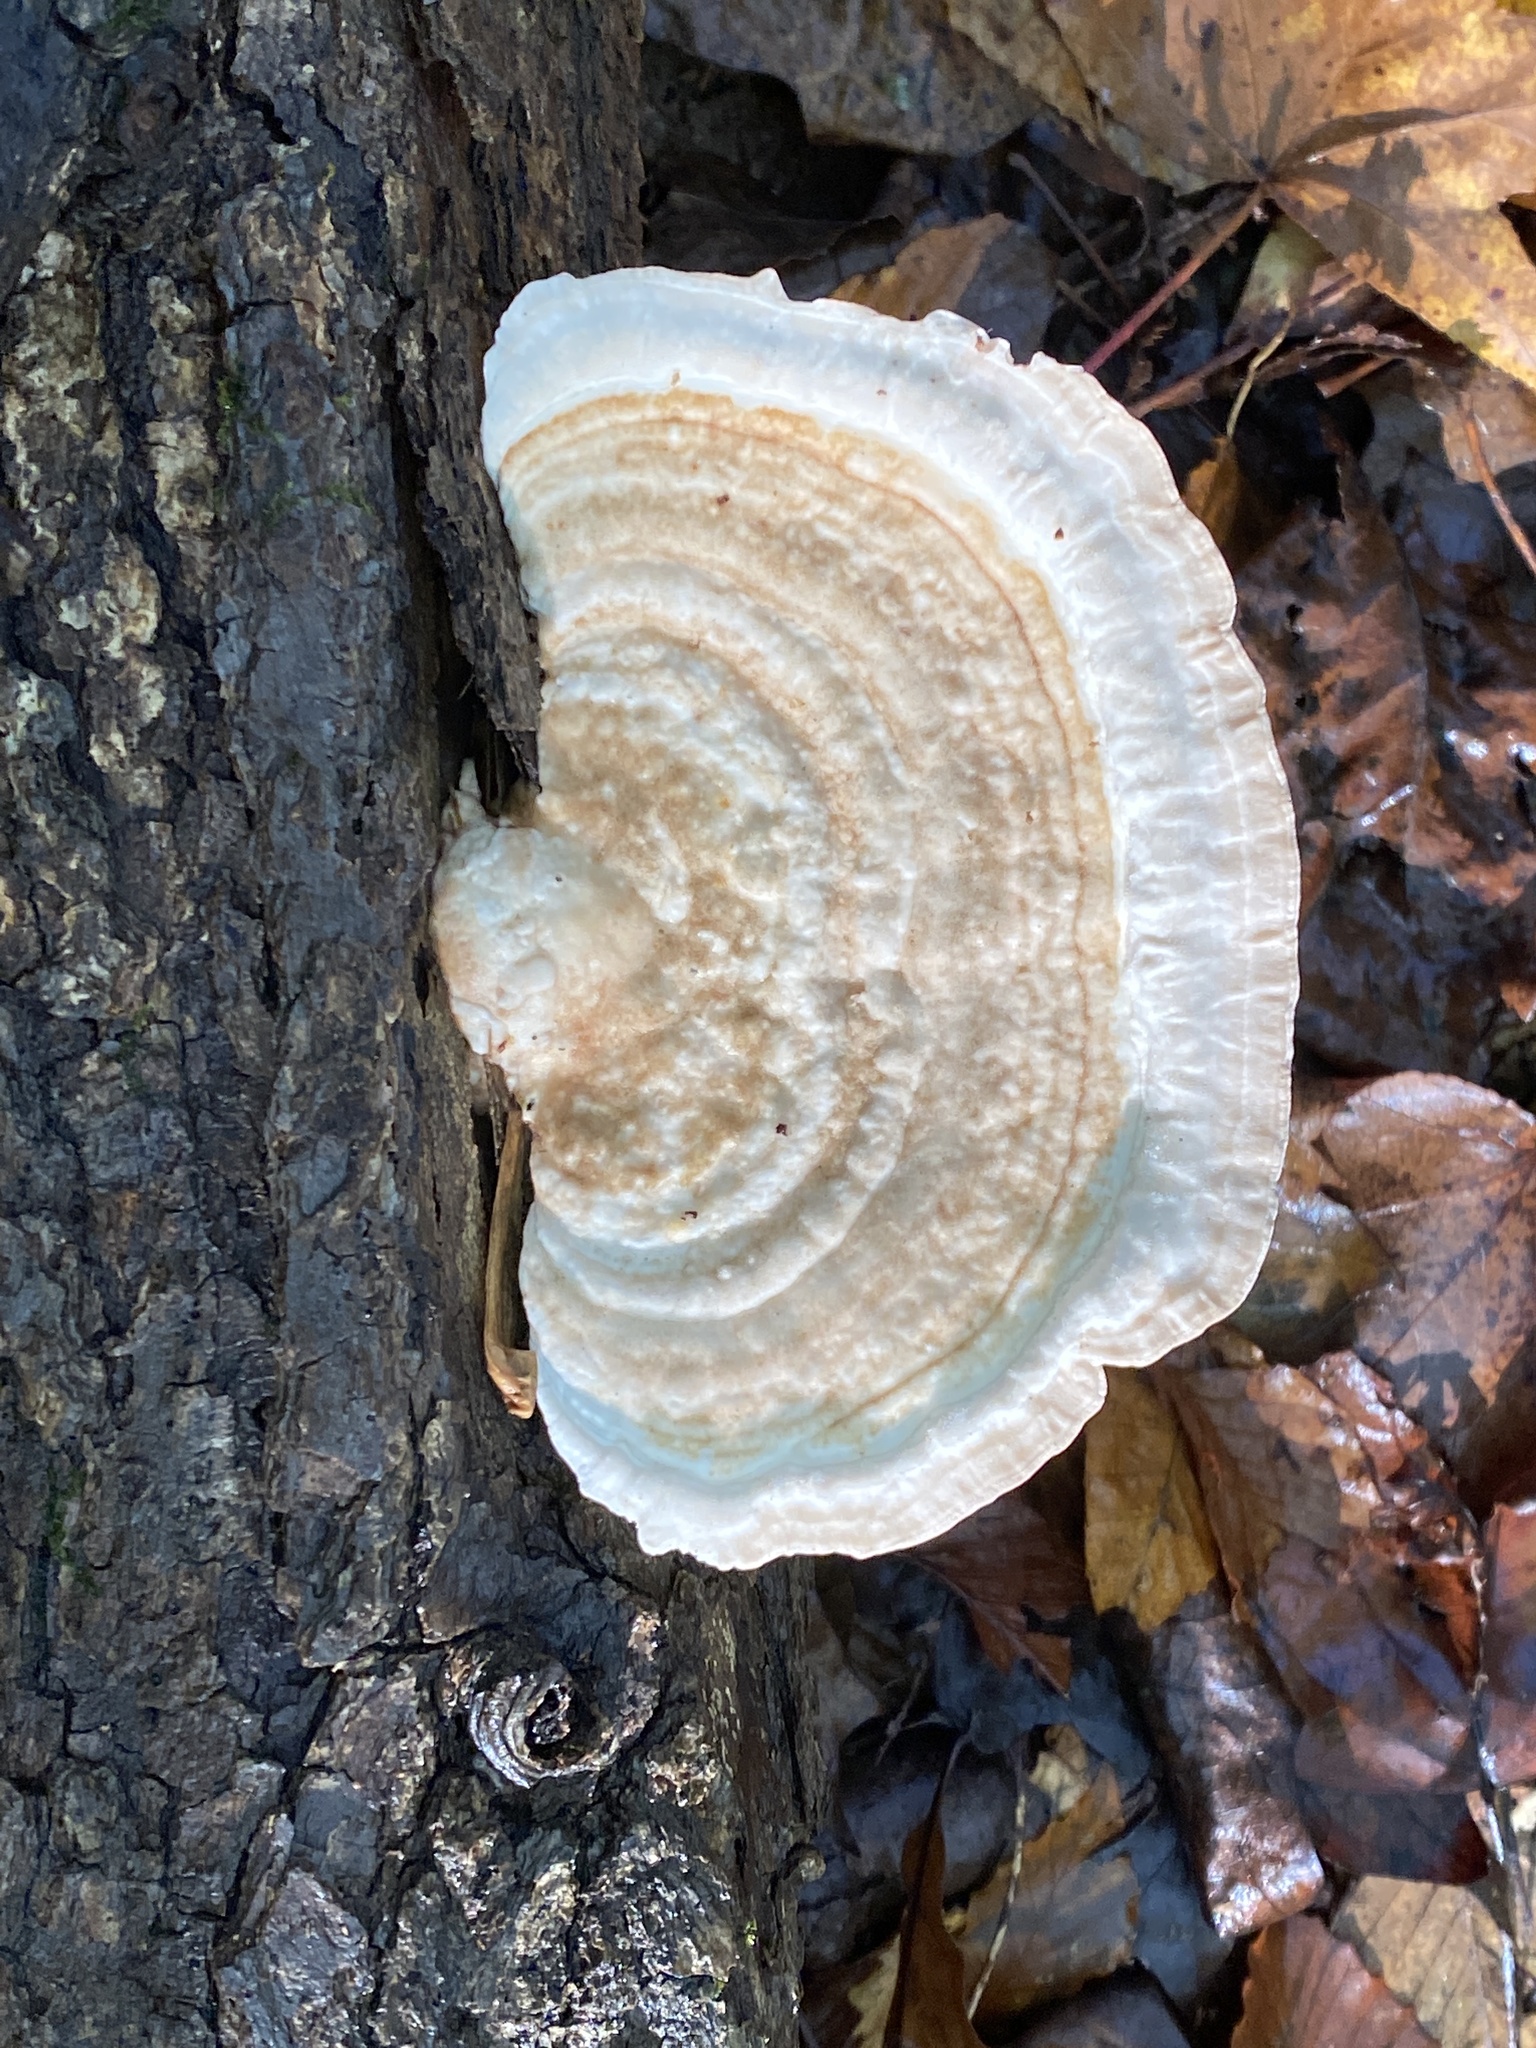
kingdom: Fungi
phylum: Basidiomycota
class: Agaricomycetes
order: Polyporales
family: Polyporaceae
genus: Trametes
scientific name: Trametes lactinea
